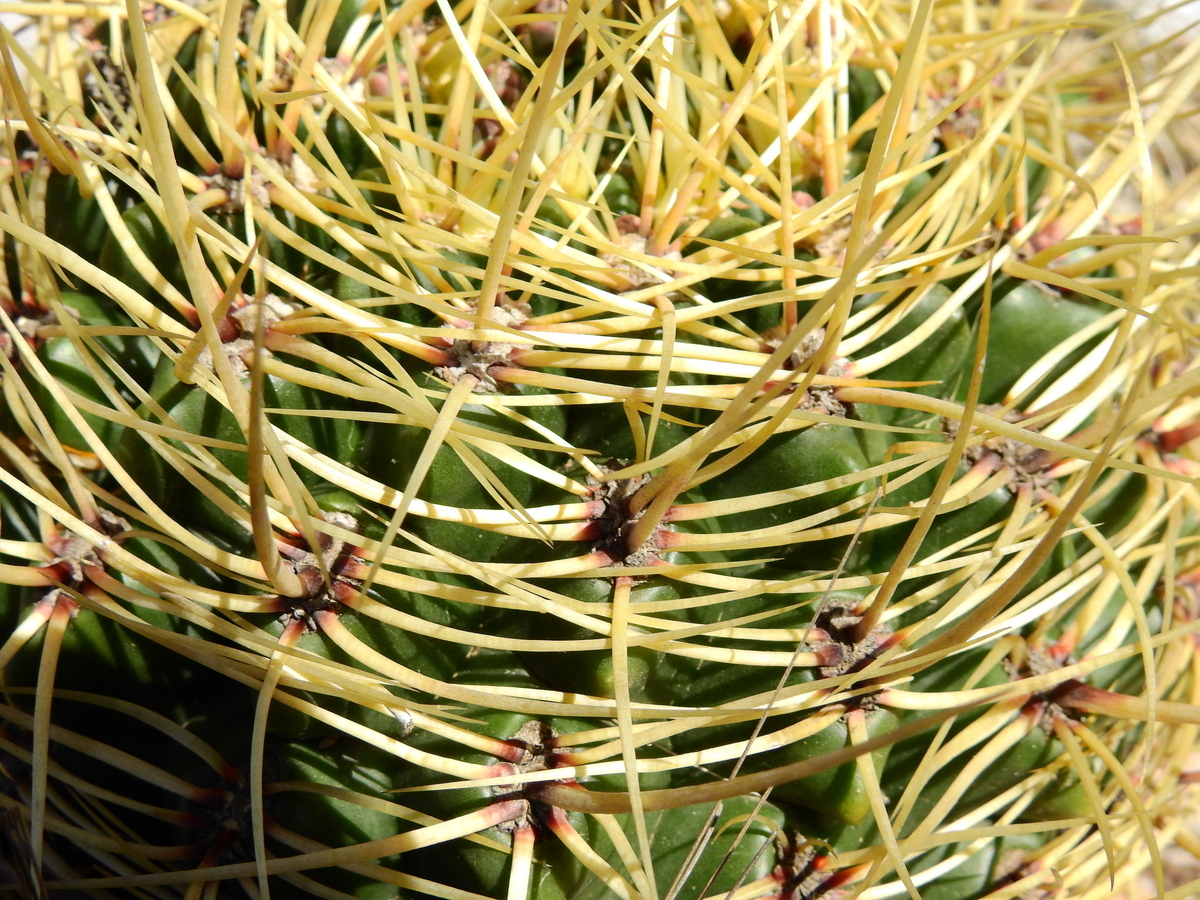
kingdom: Plantae
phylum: Tracheophyta
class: Magnoliopsida
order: Caryophyllales
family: Cactaceae
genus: Gymnocalycium
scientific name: Gymnocalycium monvillei
